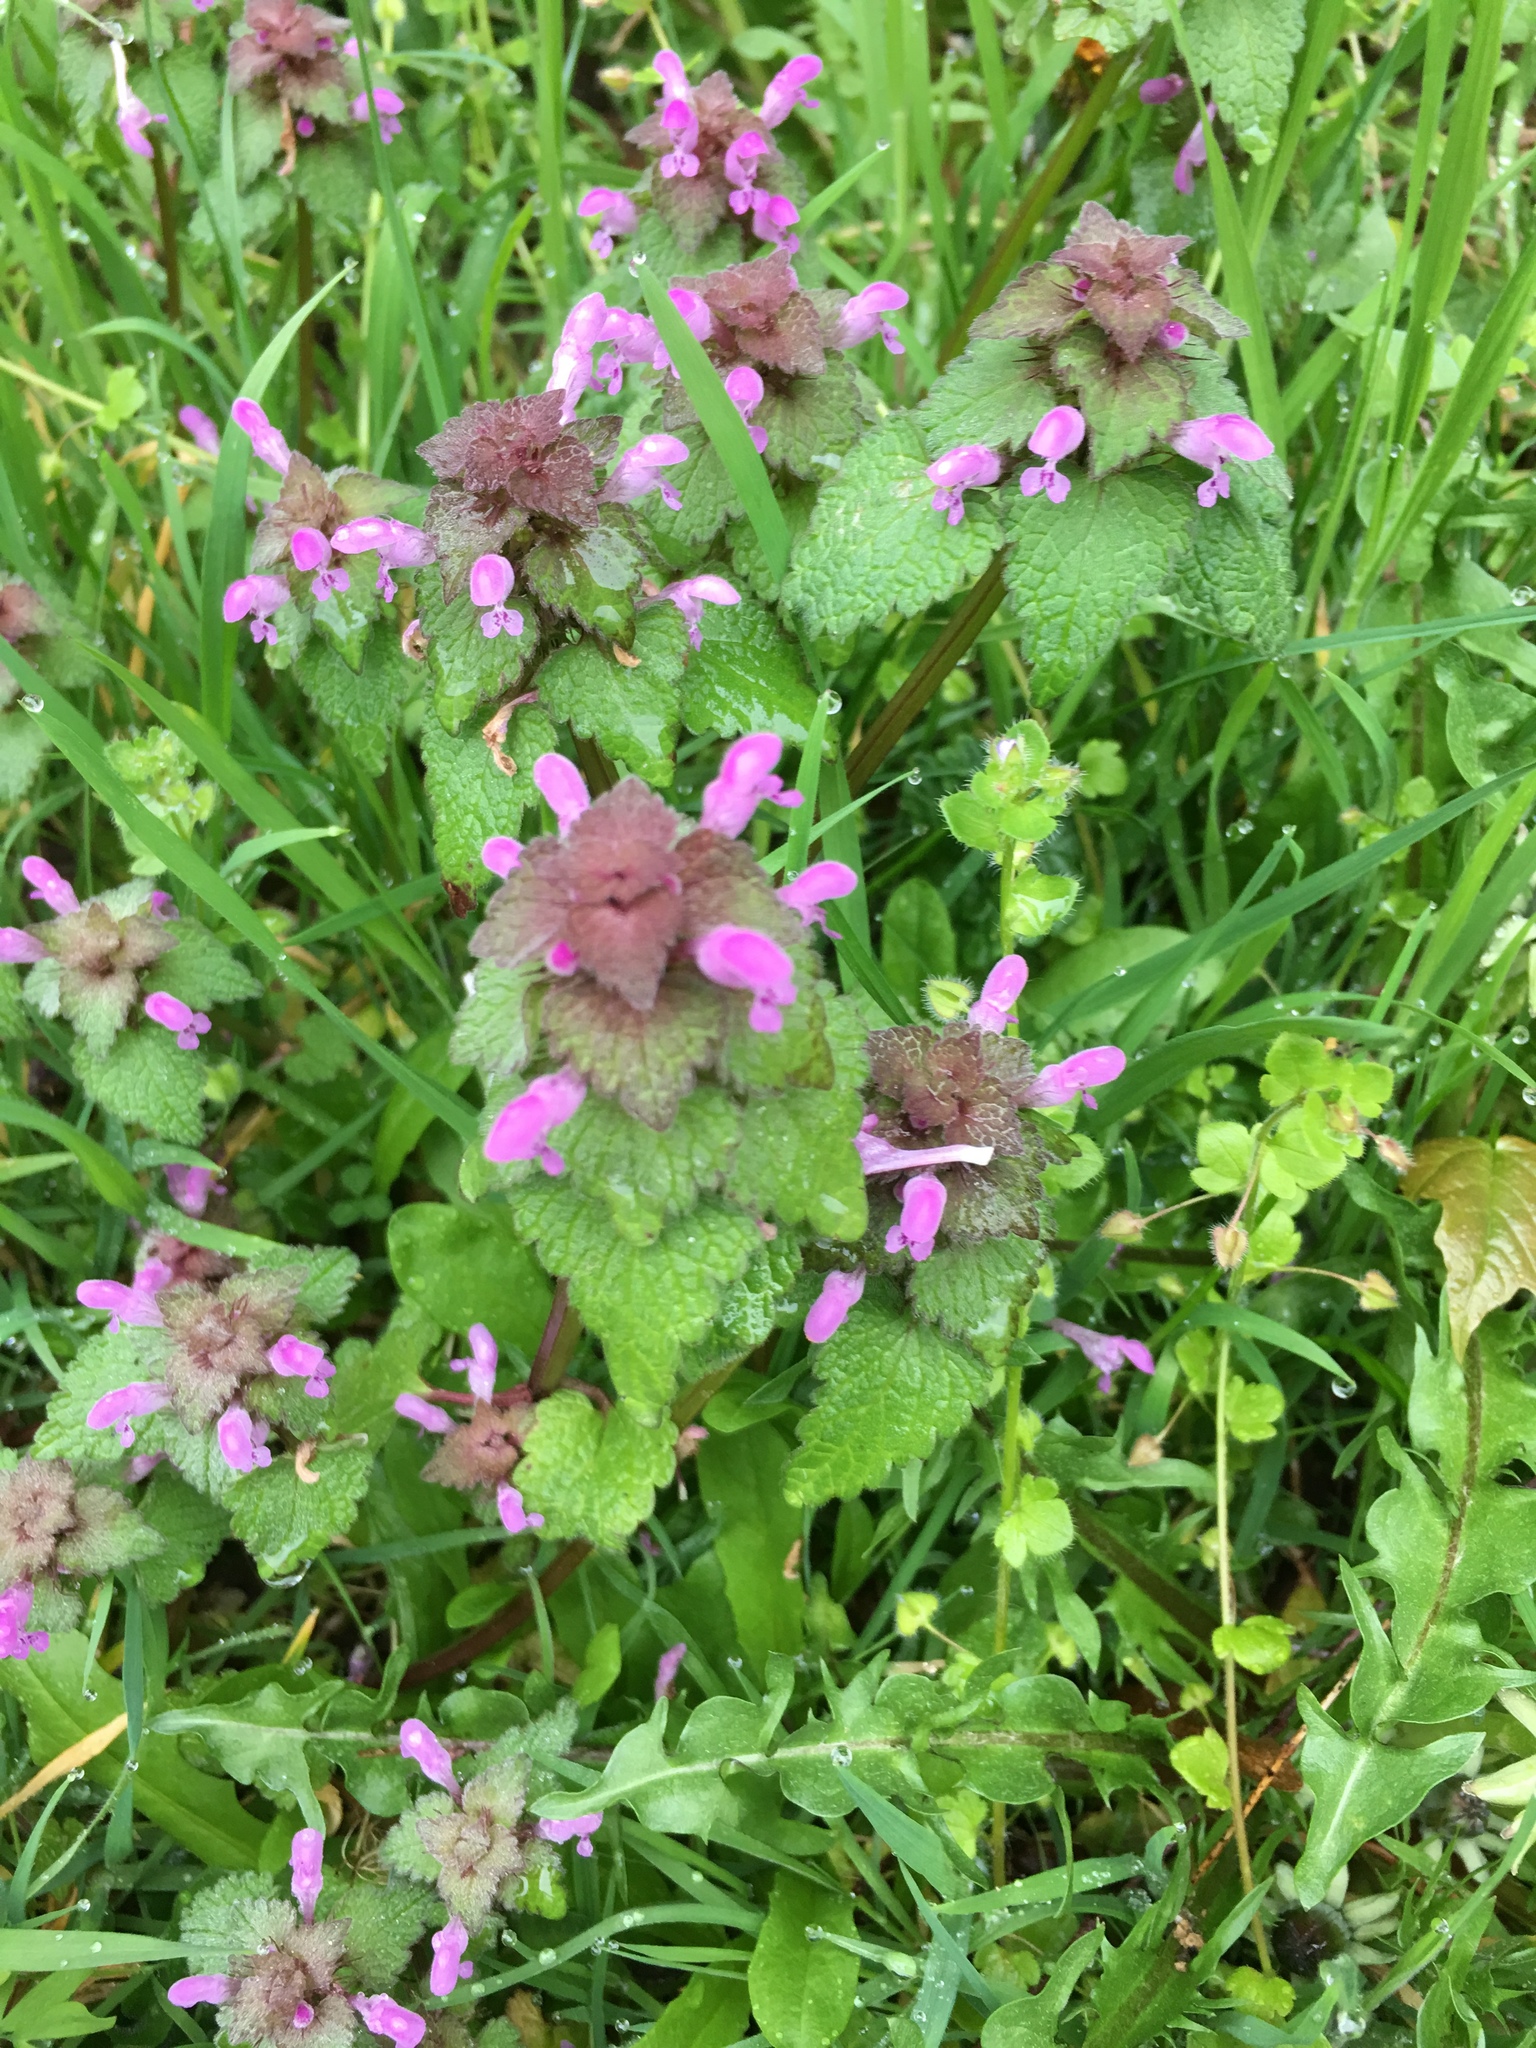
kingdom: Plantae
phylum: Tracheophyta
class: Magnoliopsida
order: Lamiales
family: Lamiaceae
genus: Lamium
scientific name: Lamium purpureum
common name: Red dead-nettle
